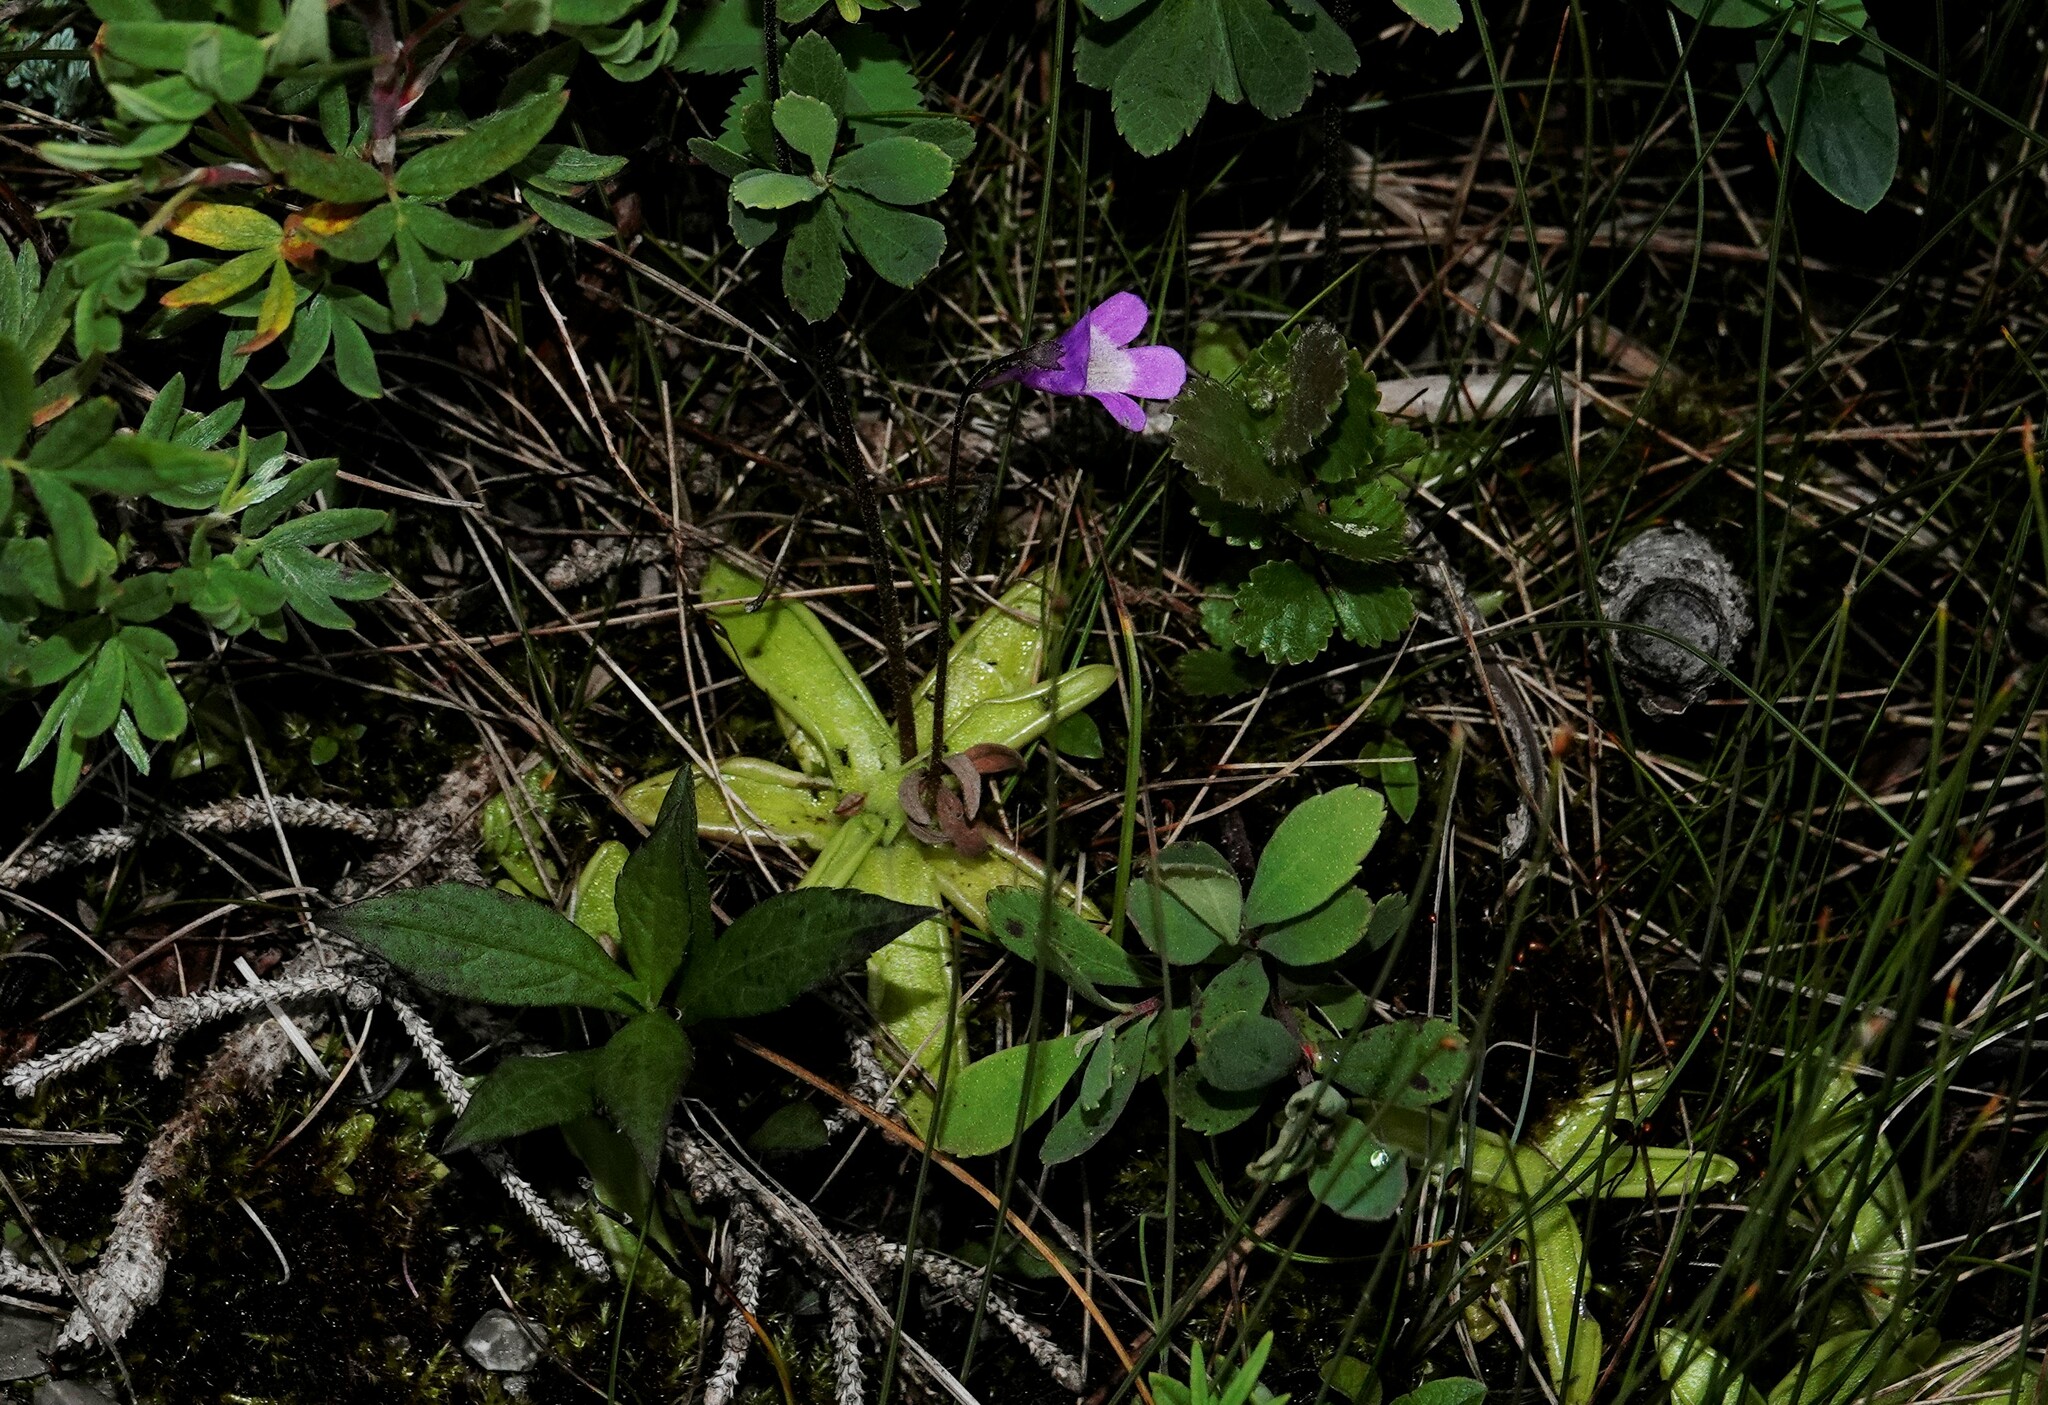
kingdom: Plantae
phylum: Tracheophyta
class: Magnoliopsida
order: Lamiales
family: Lentibulariaceae
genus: Pinguicula
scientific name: Pinguicula vulgaris
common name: Common butterwort
